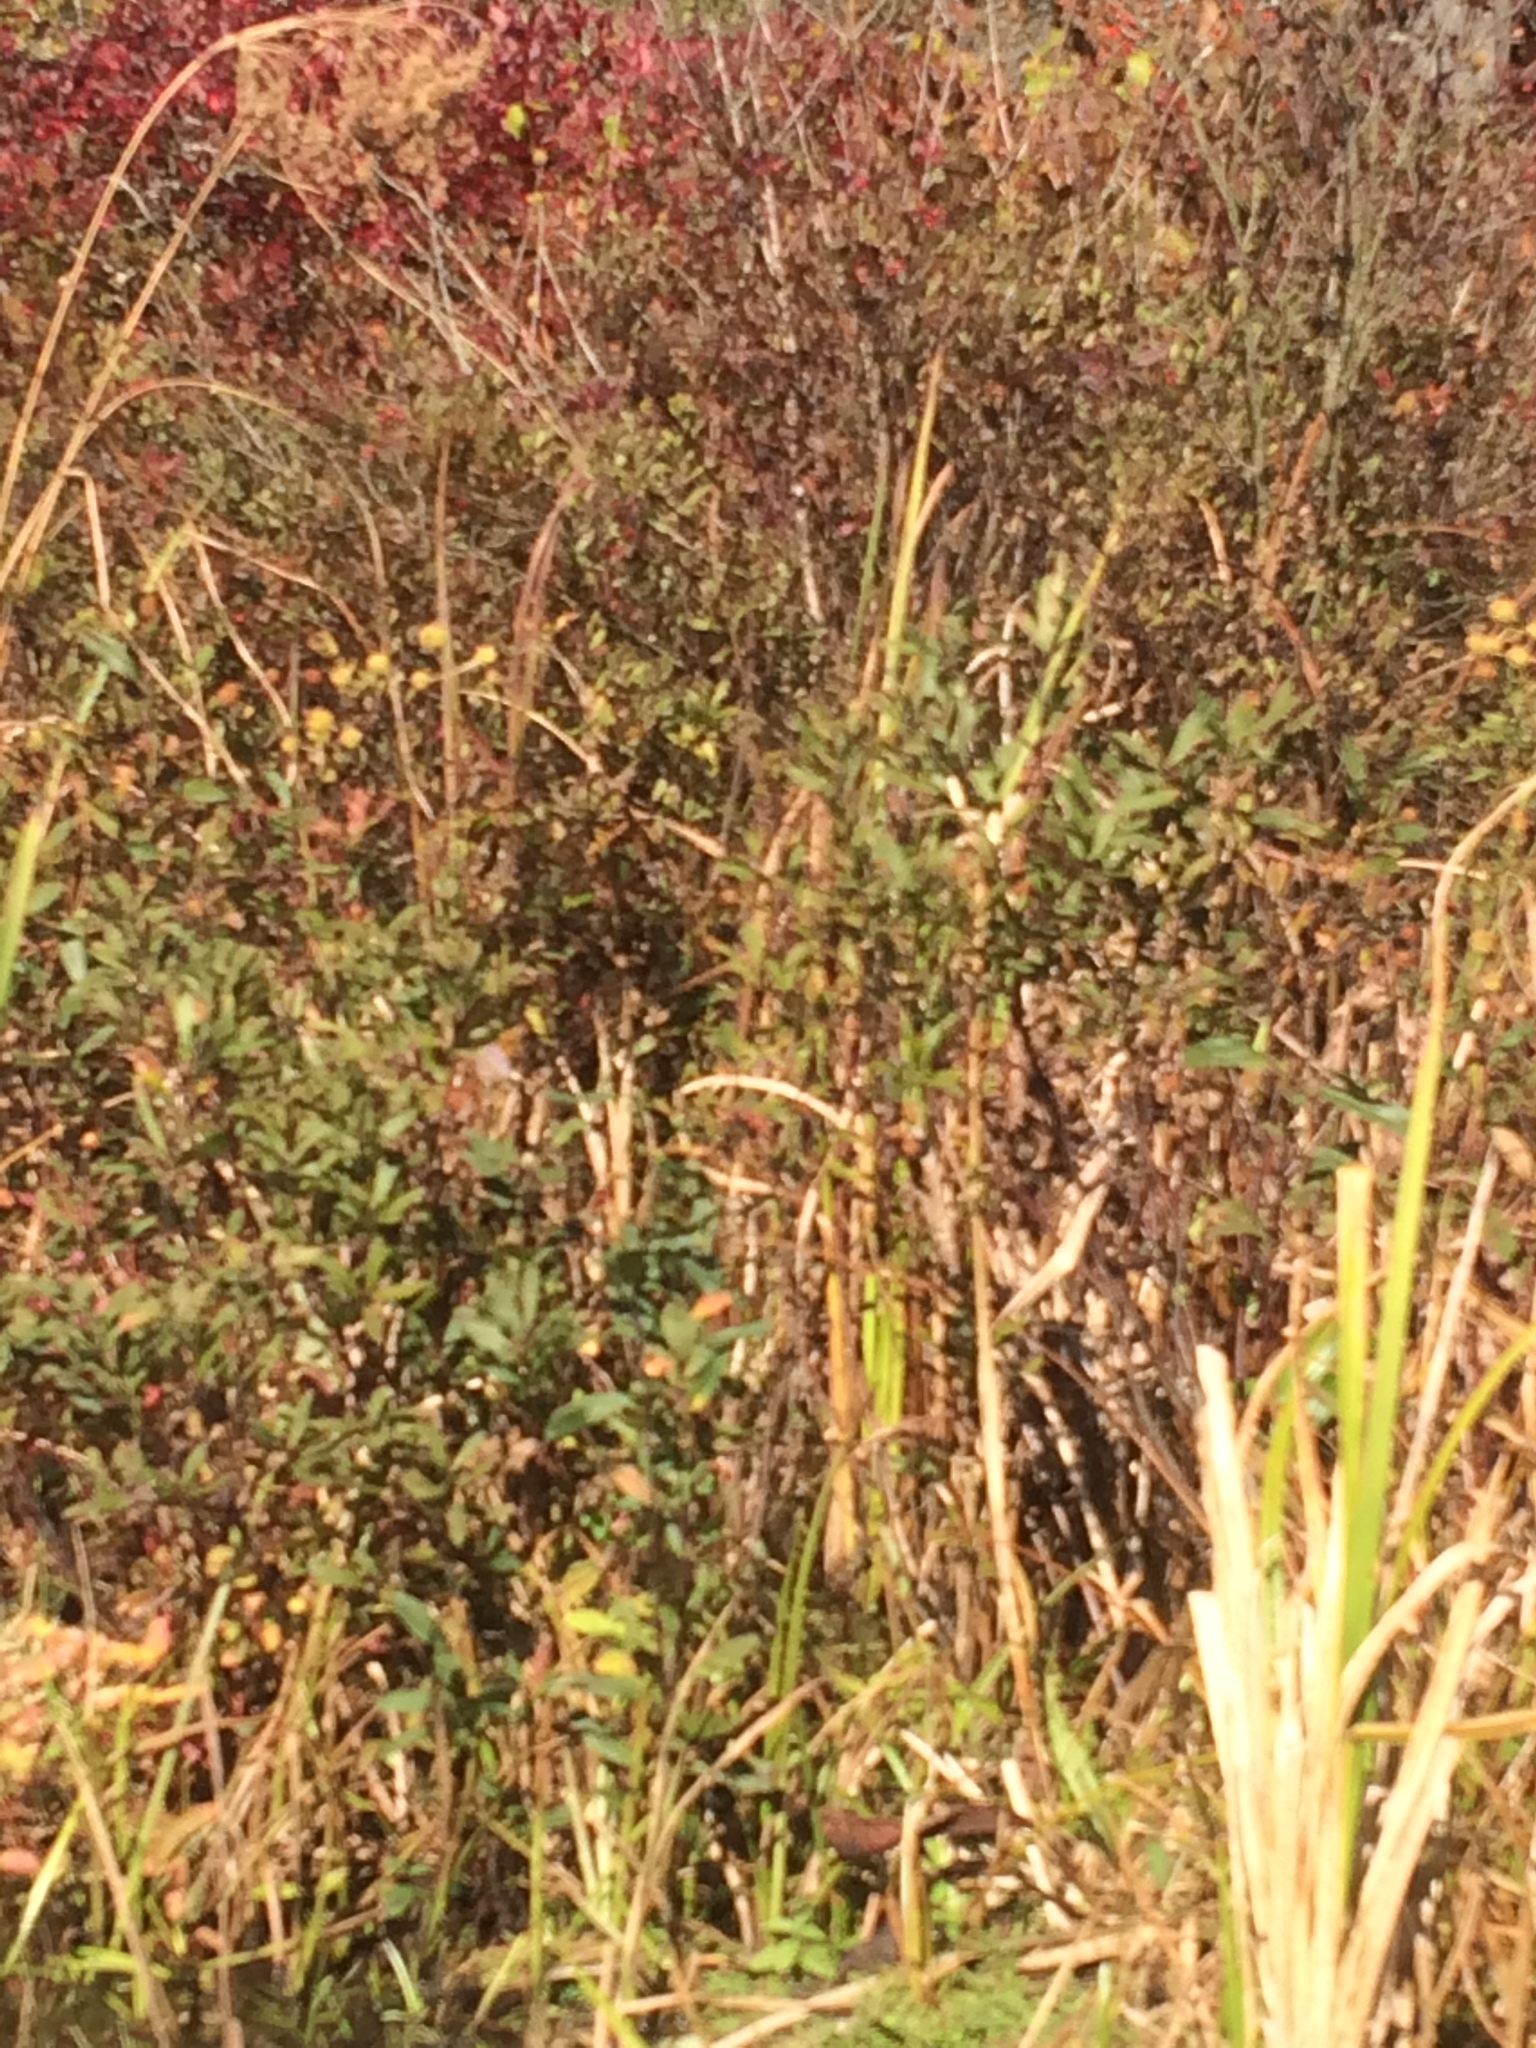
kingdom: Plantae
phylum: Tracheophyta
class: Magnoliopsida
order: Fagales
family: Myricaceae
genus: Myrica
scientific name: Myrica gale
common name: Sweet gale
